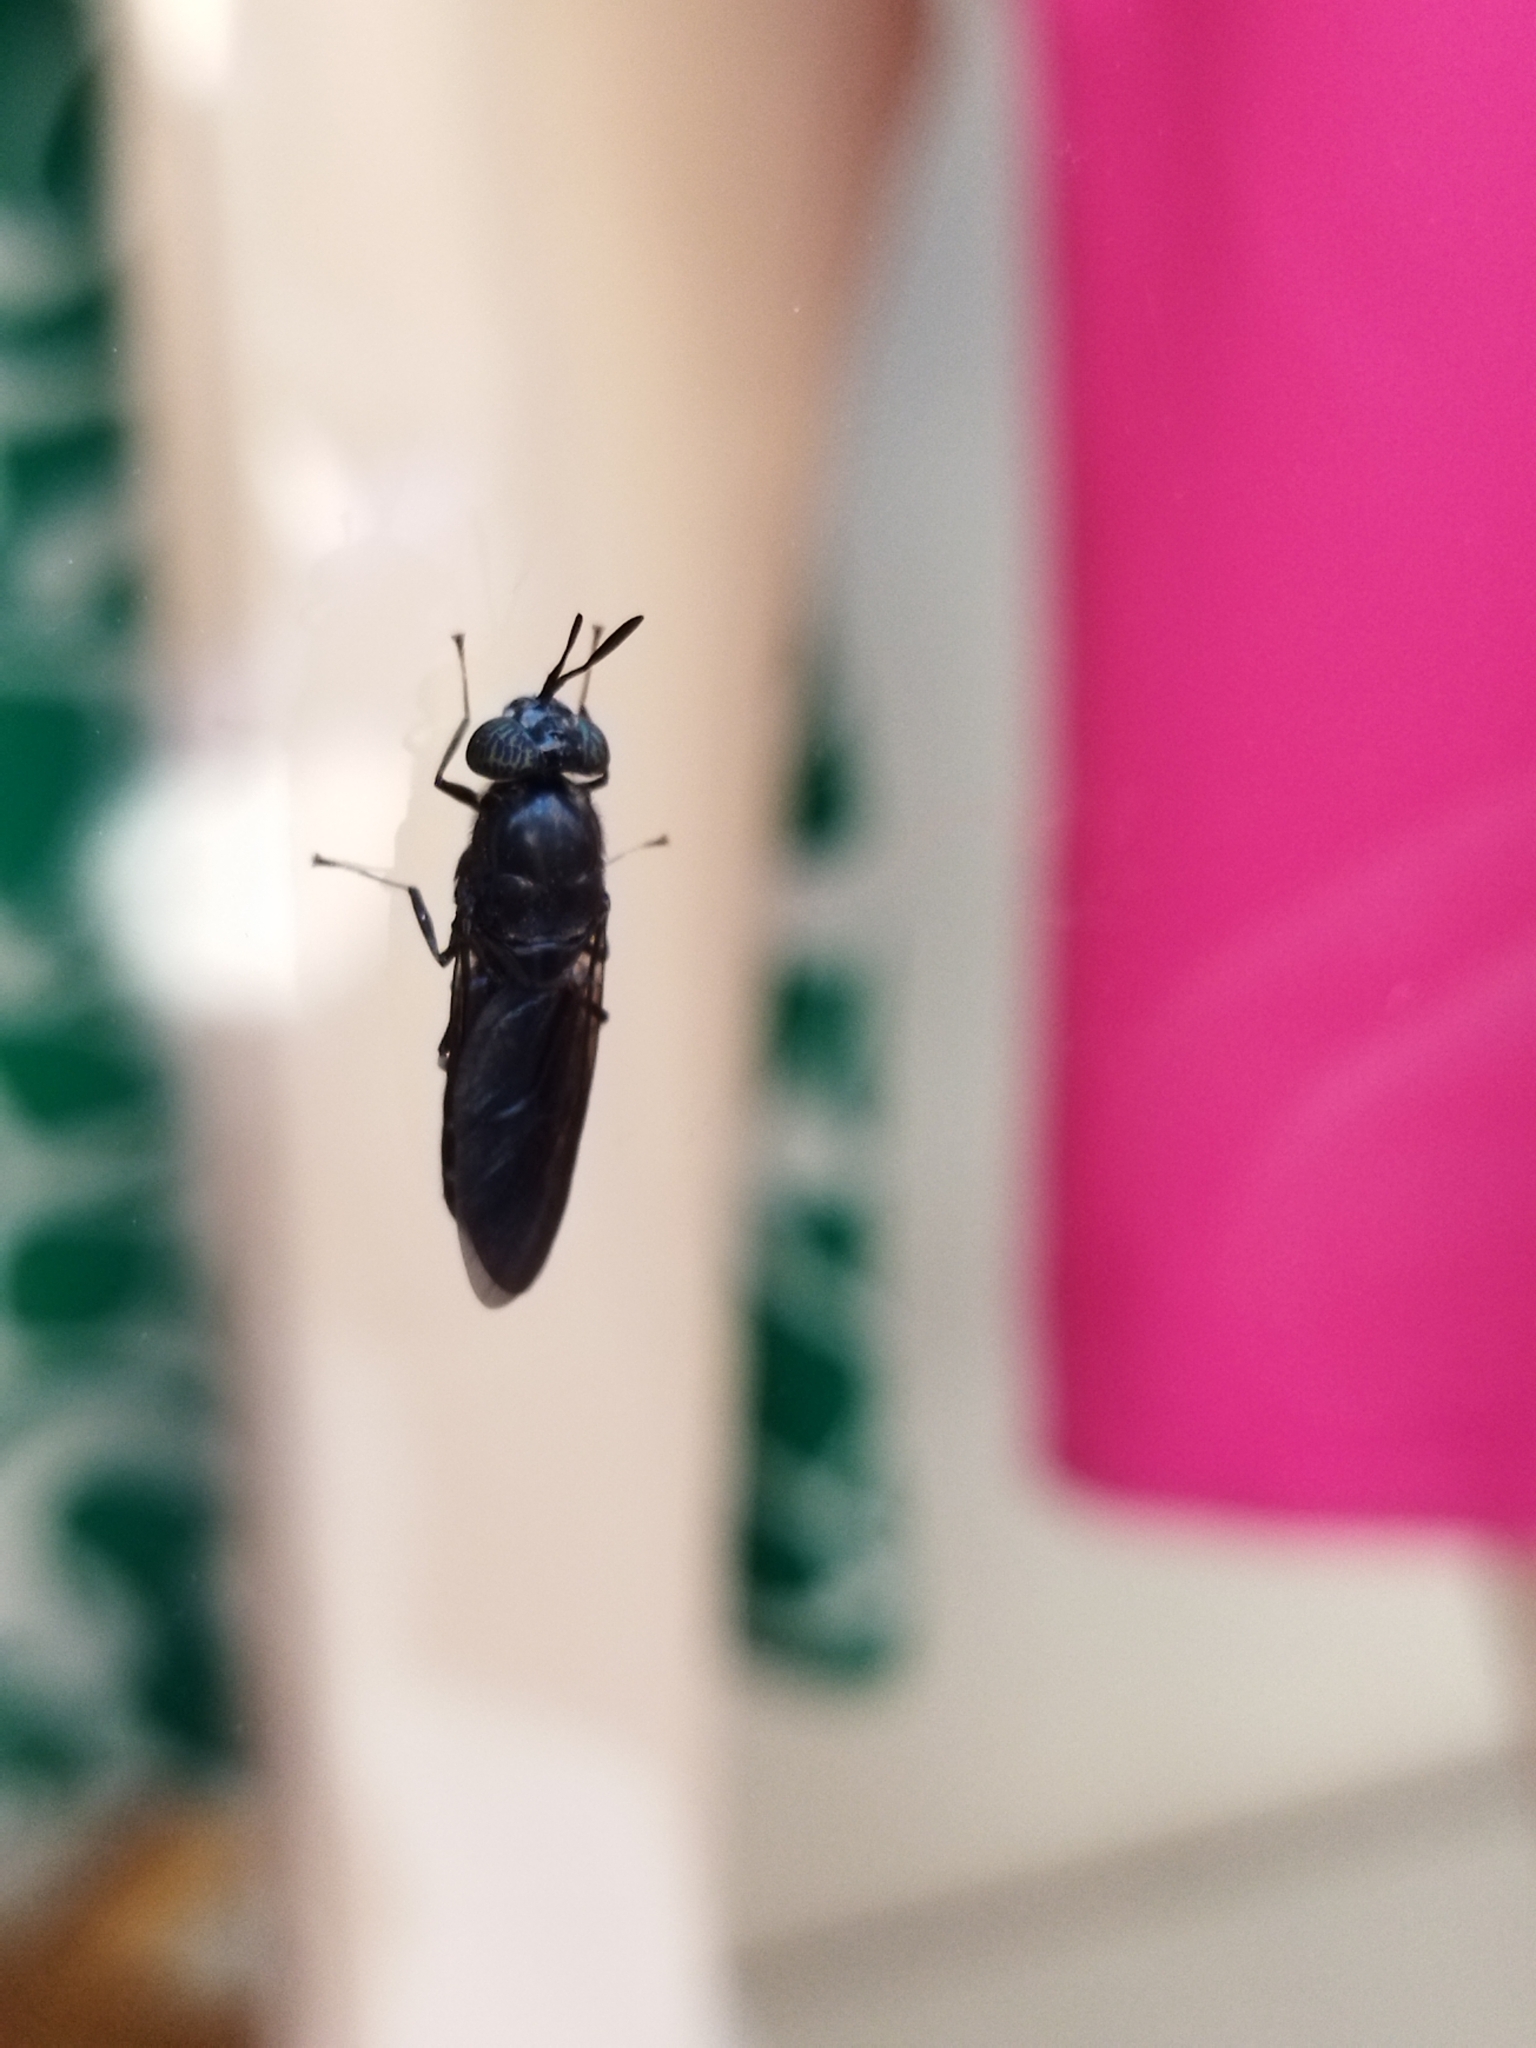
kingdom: Animalia
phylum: Arthropoda
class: Insecta
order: Diptera
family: Stratiomyidae
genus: Hermetia
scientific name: Hermetia illucens
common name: Black soldier fly
